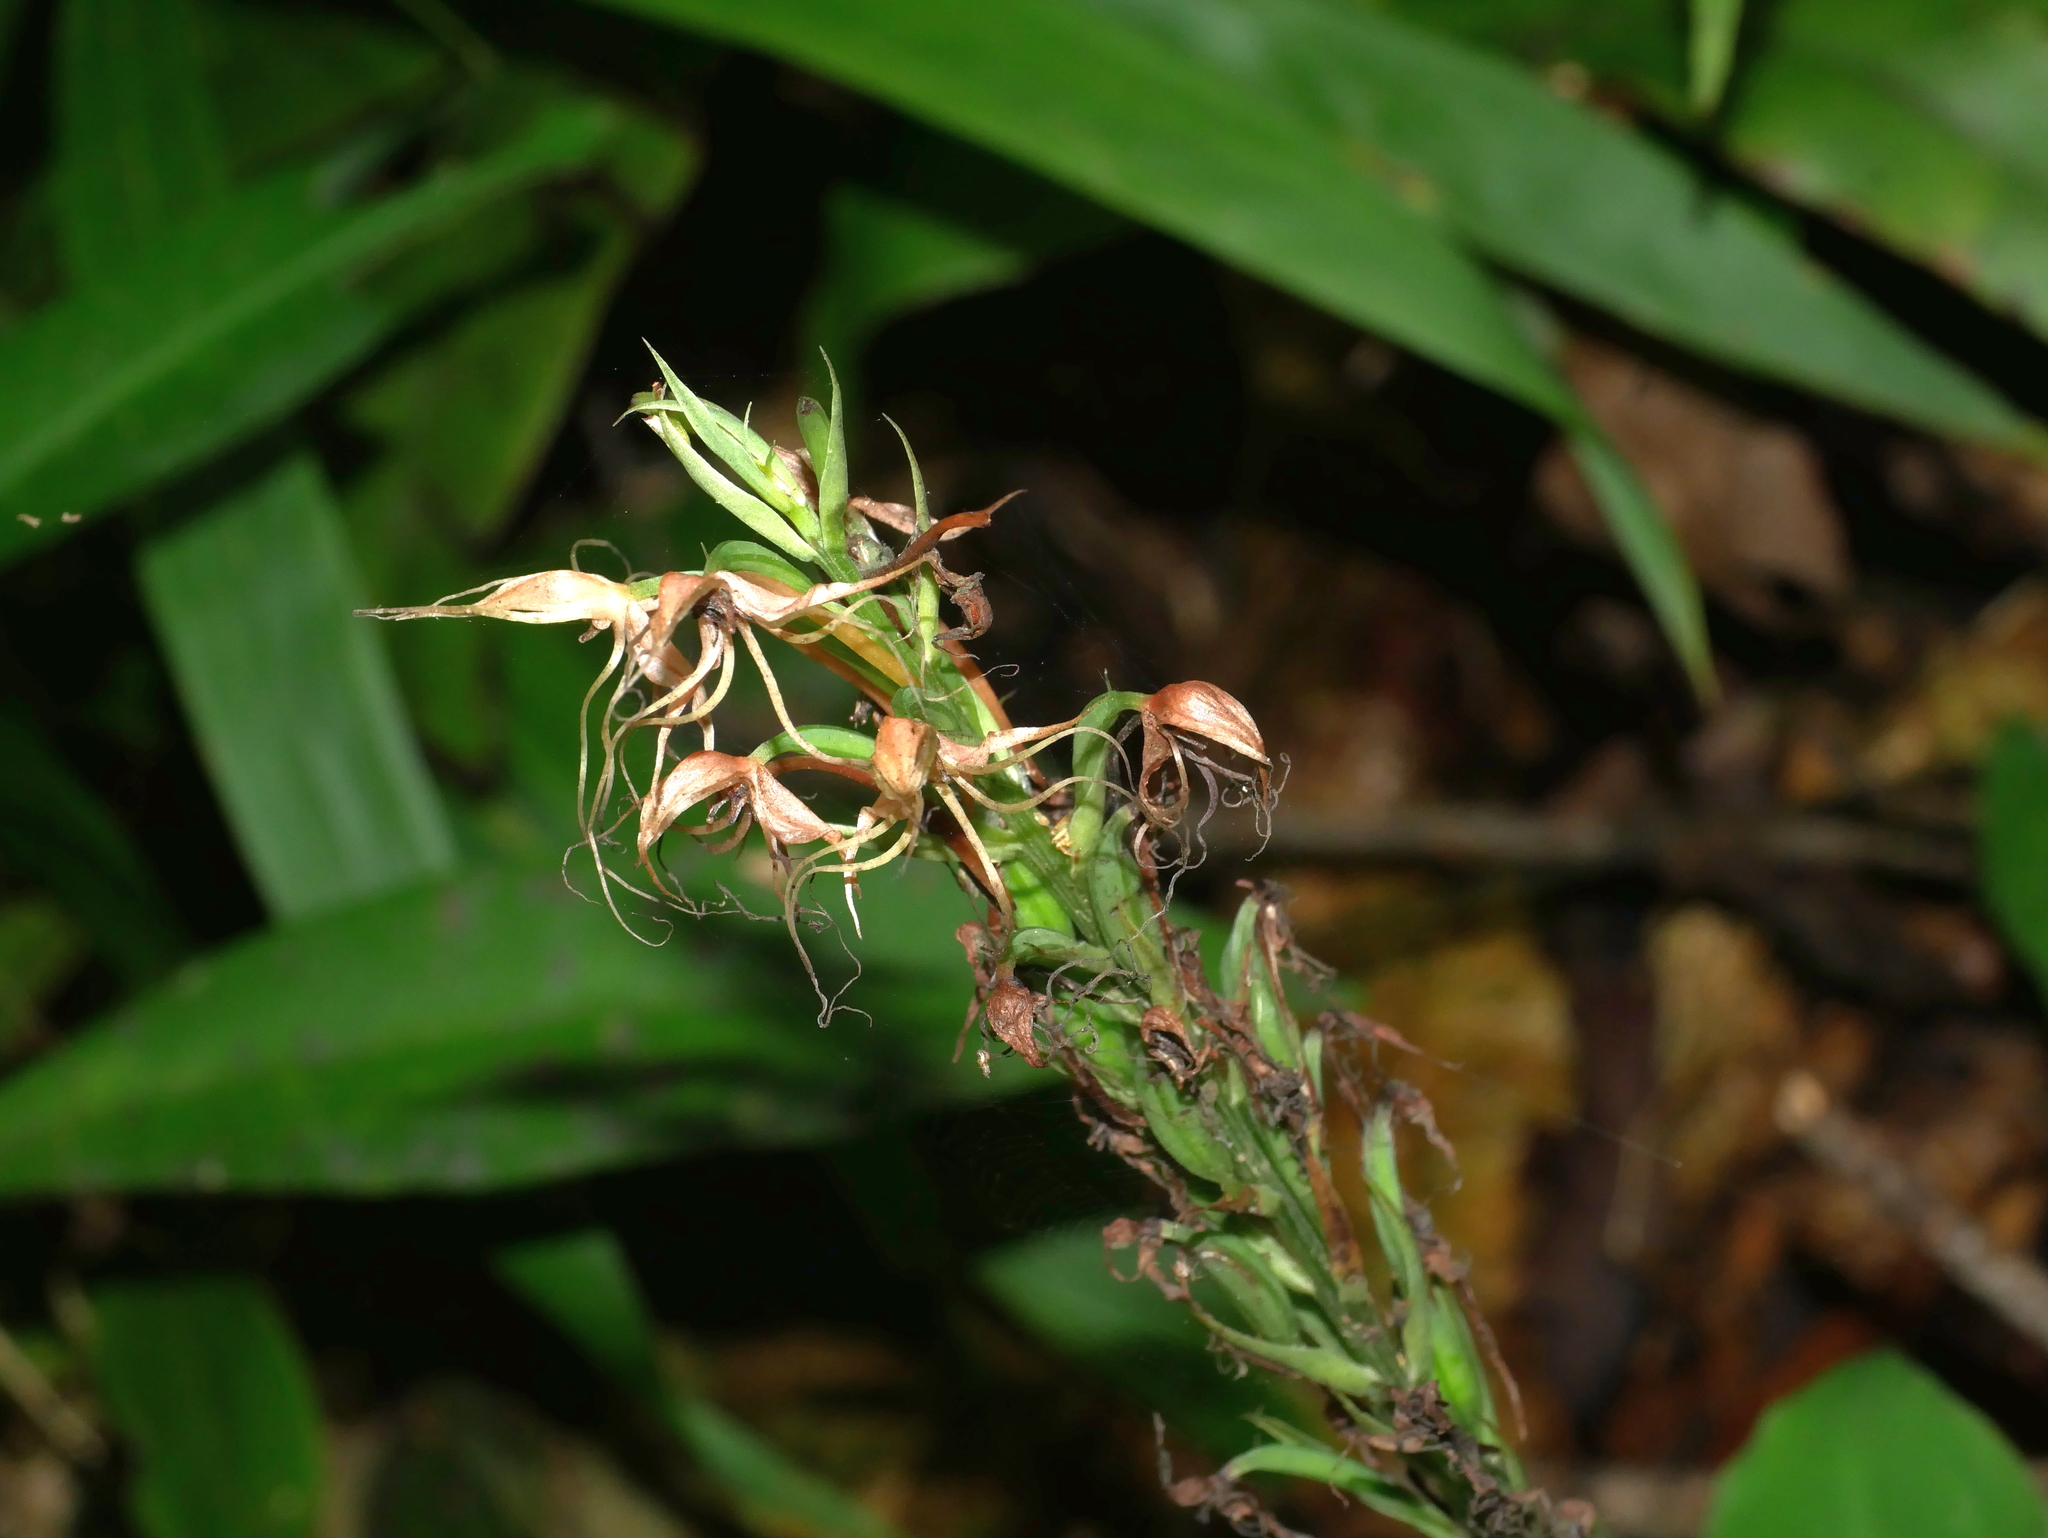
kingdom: Plantae
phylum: Tracheophyta
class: Liliopsida
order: Asparagales
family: Orchidaceae
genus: Habenaria
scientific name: Habenaria pantlingiana
